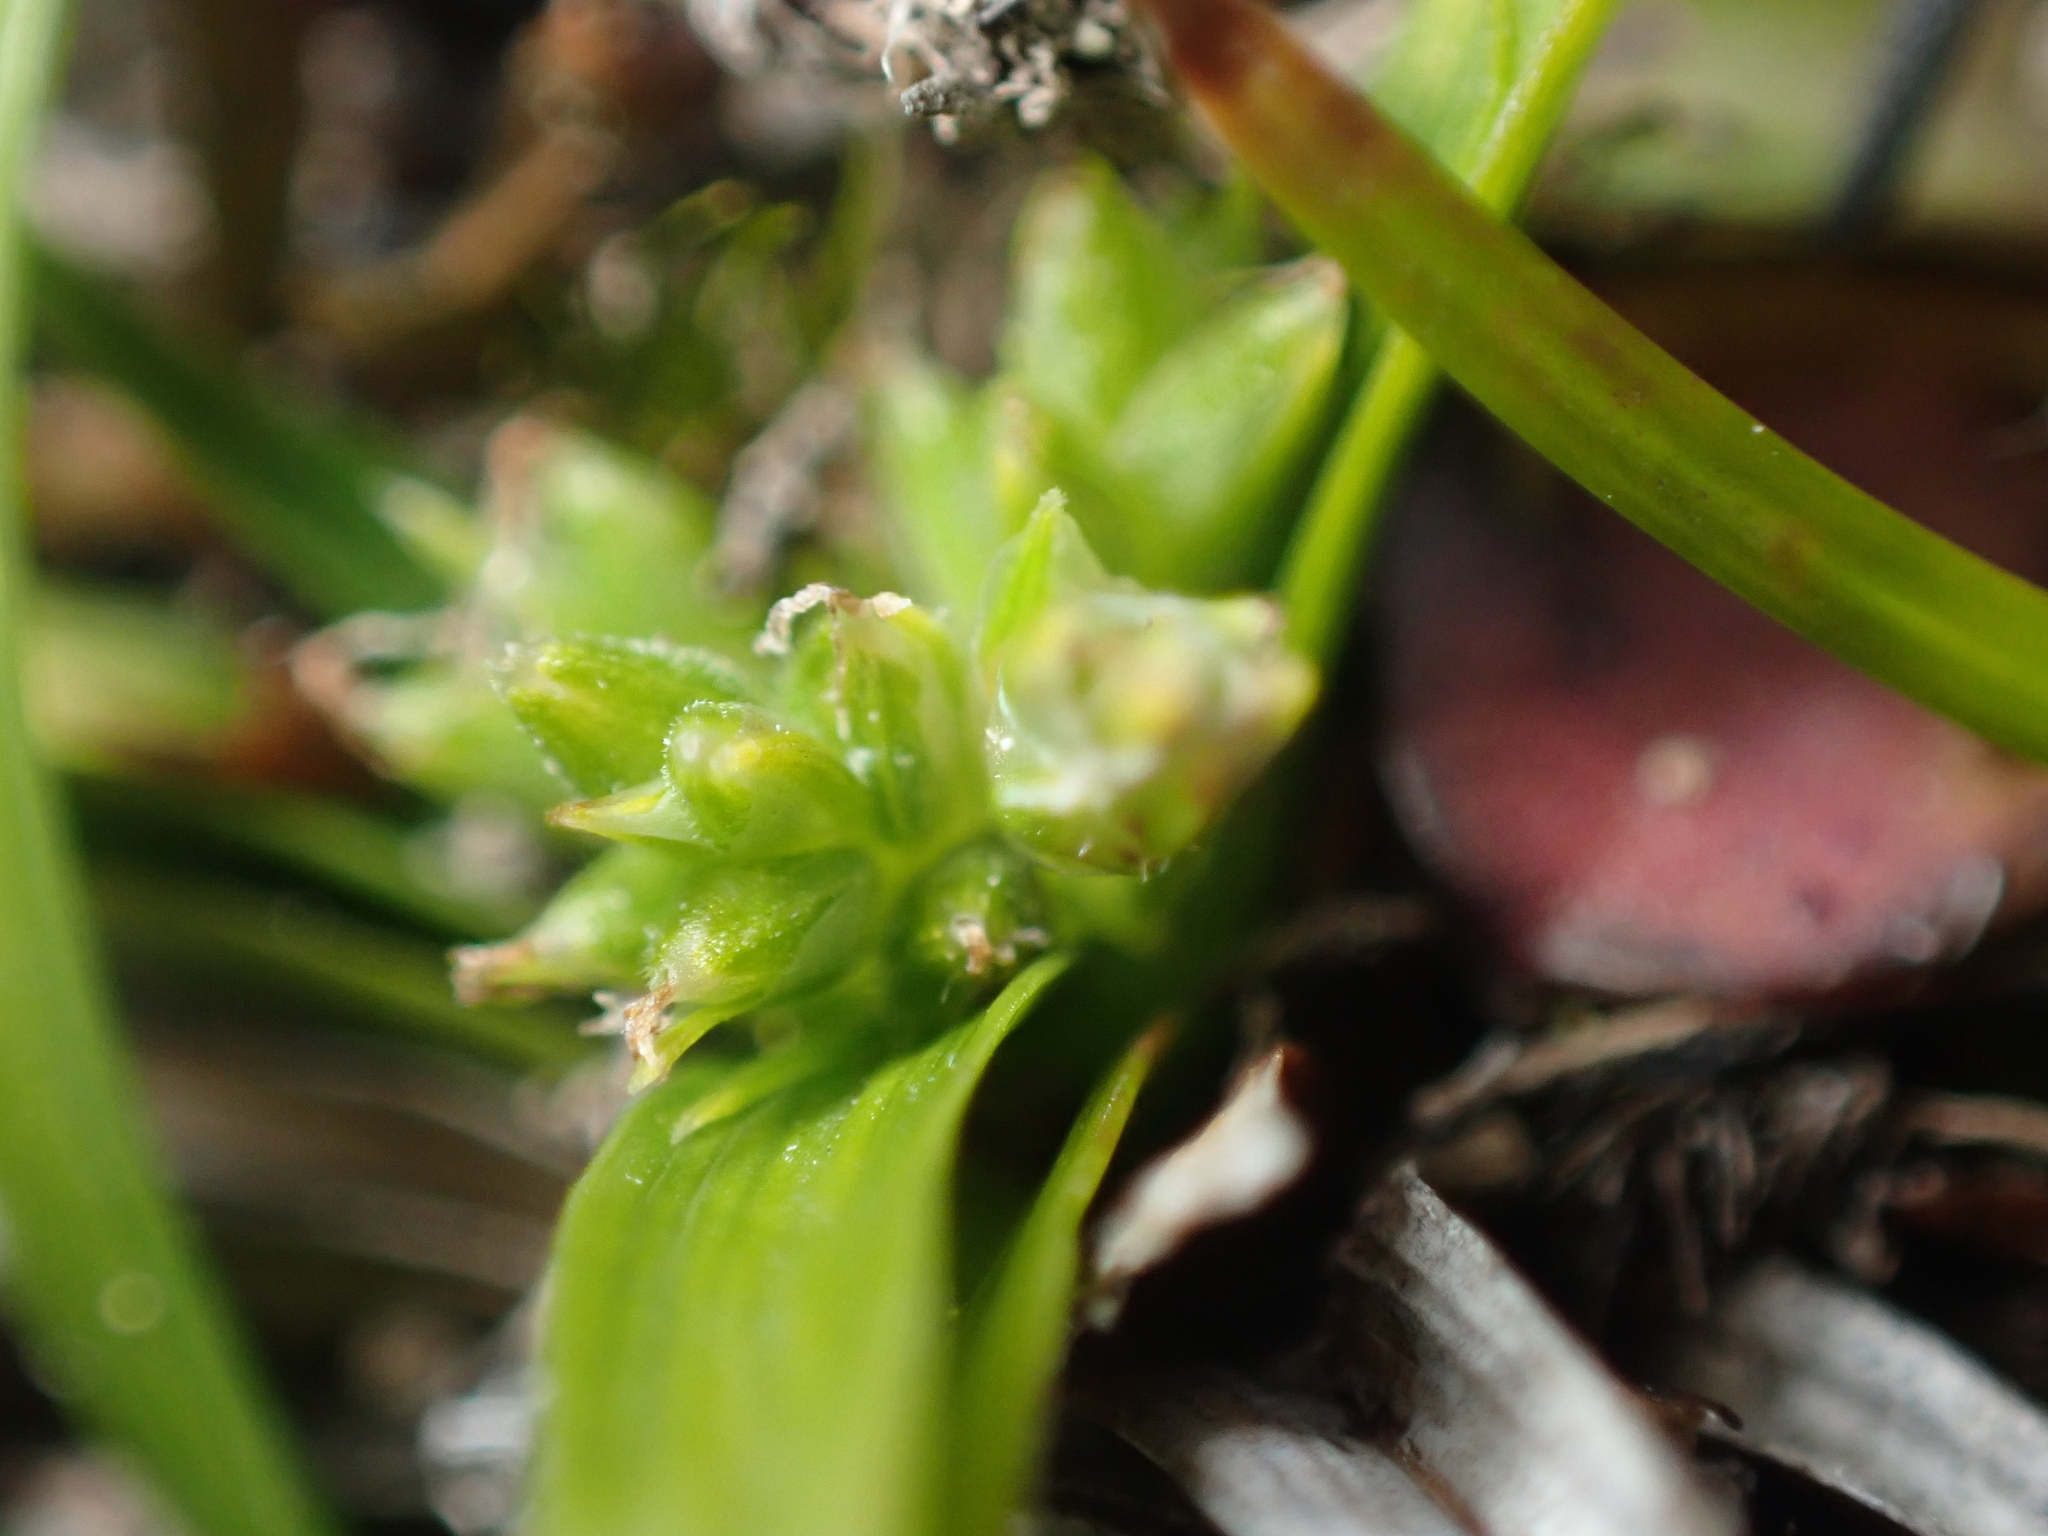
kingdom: Plantae
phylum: Tracheophyta
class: Liliopsida
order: Poales
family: Cyperaceae
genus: Carex
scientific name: Carex breviculmis
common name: Asian shortstem sedge
